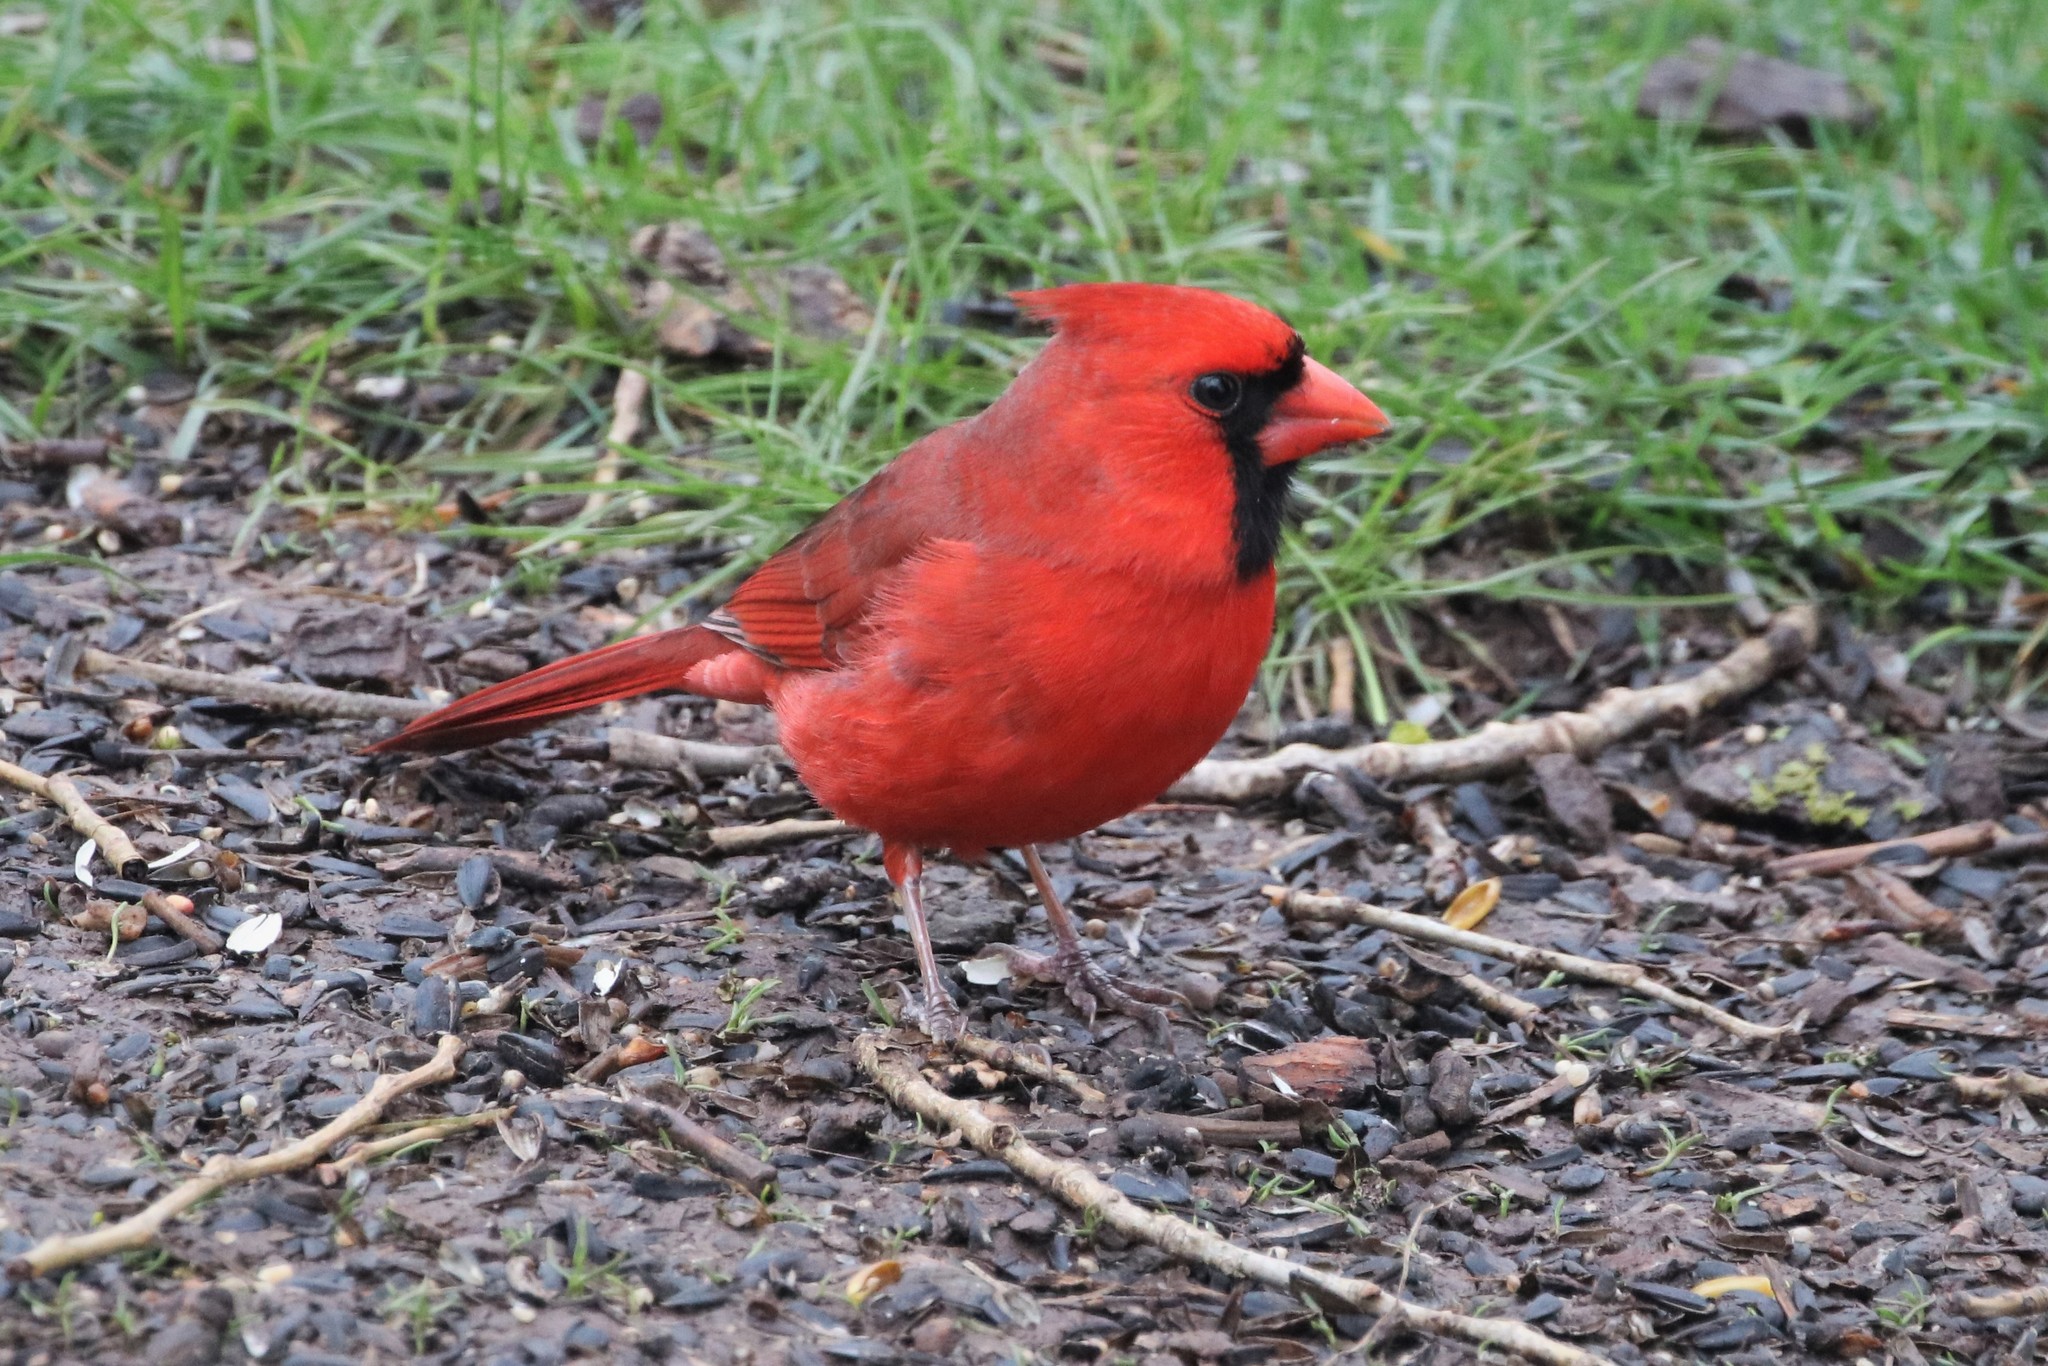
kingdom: Animalia
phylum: Chordata
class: Aves
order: Passeriformes
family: Cardinalidae
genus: Cardinalis
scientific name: Cardinalis cardinalis
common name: Northern cardinal
